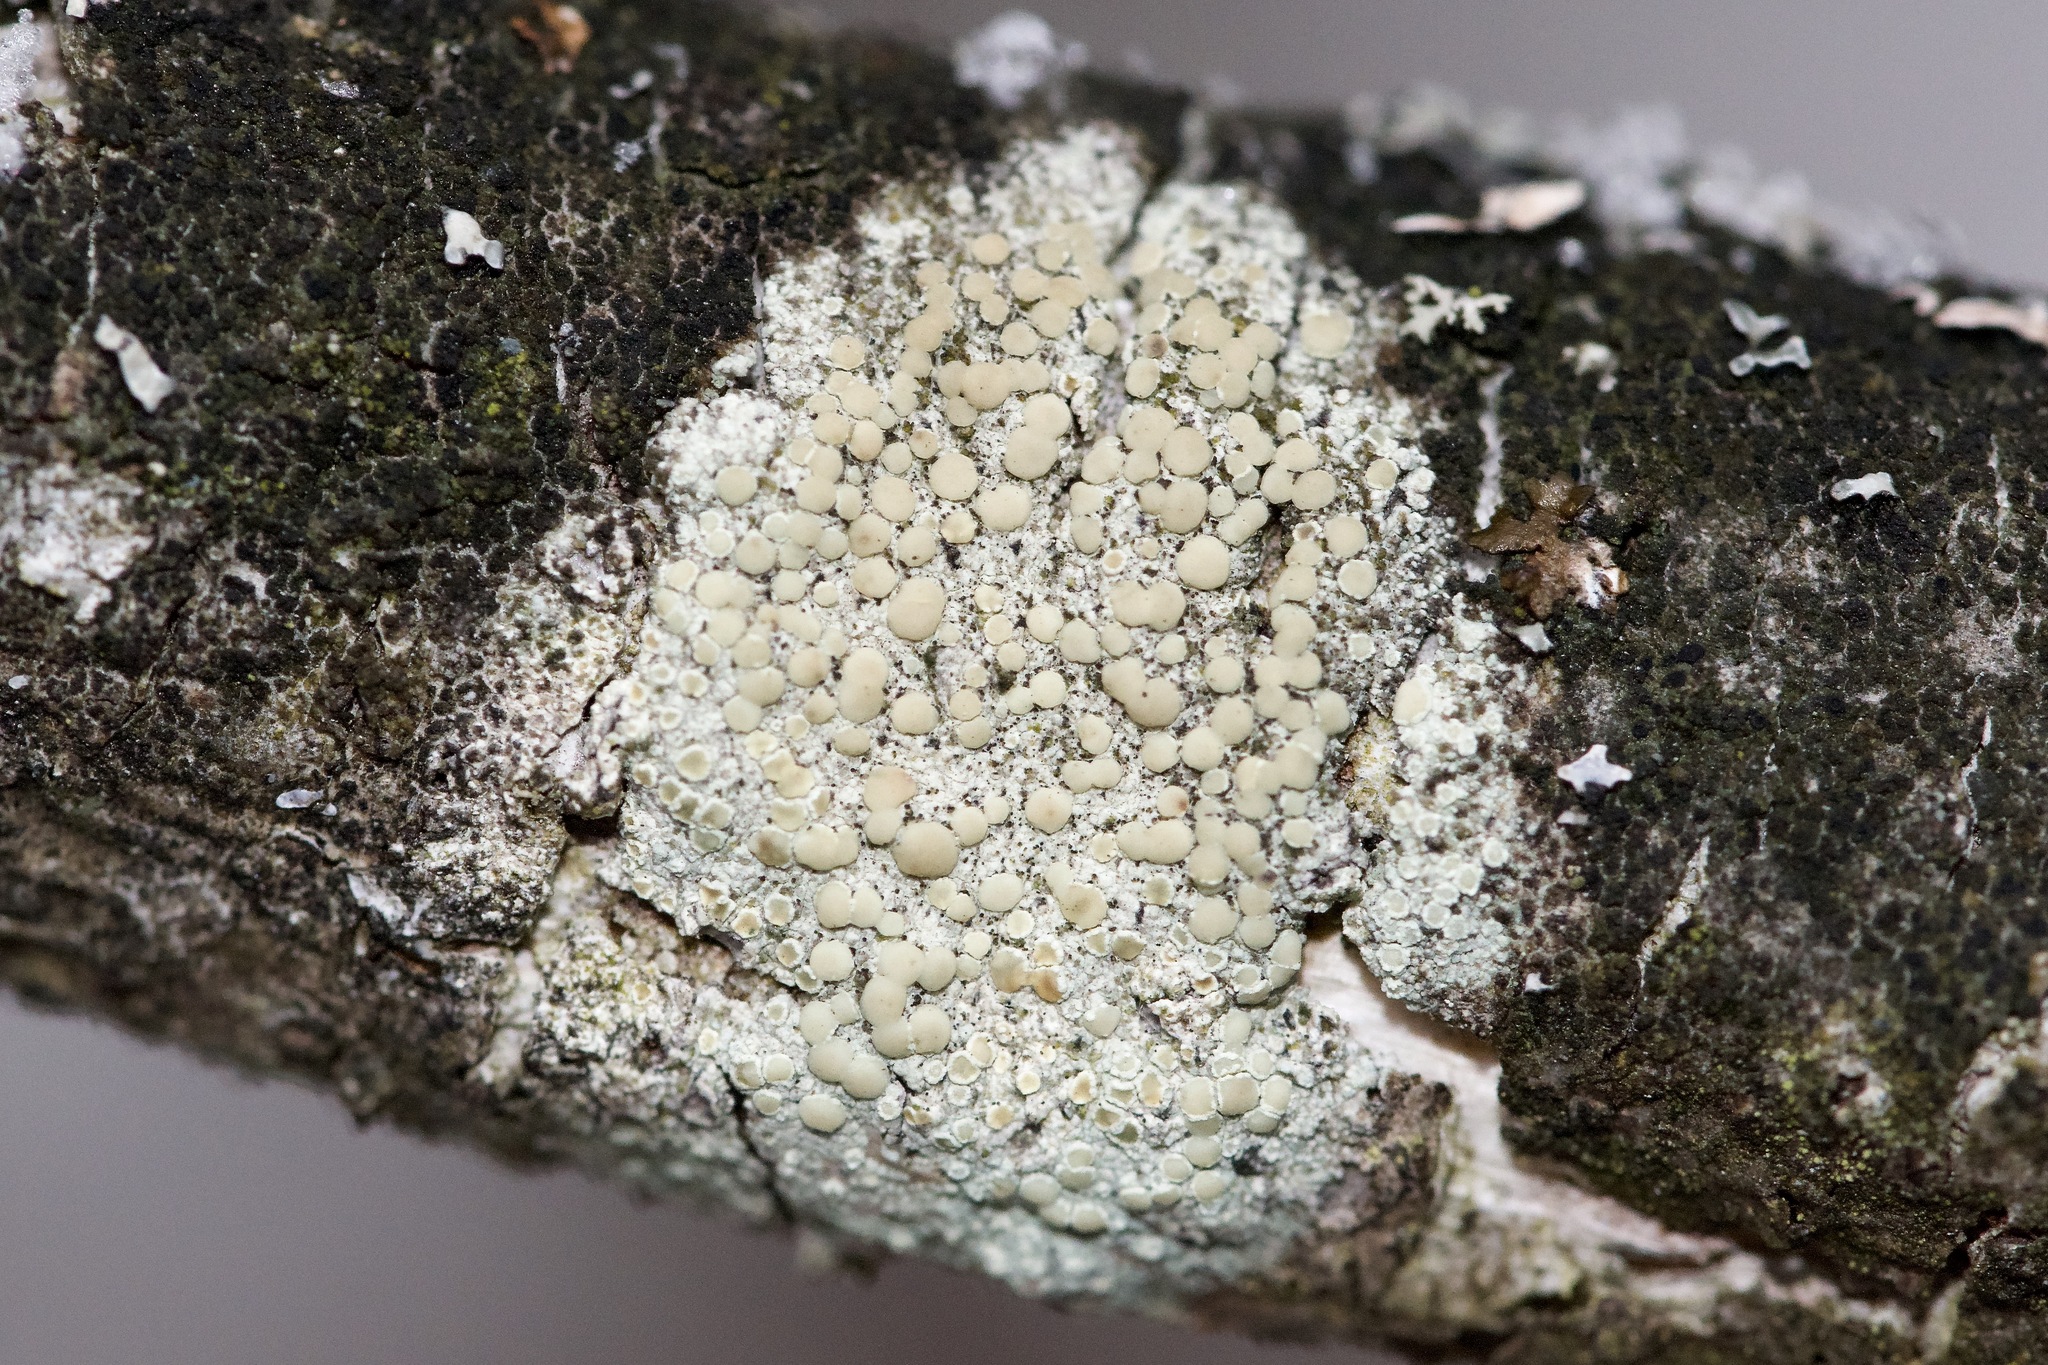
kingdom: Fungi
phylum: Ascomycota
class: Lecanoromycetes
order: Lecanorales
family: Lecanoraceae
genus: Lecanora
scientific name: Lecanora strobilina
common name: Mealy rim-lichen
